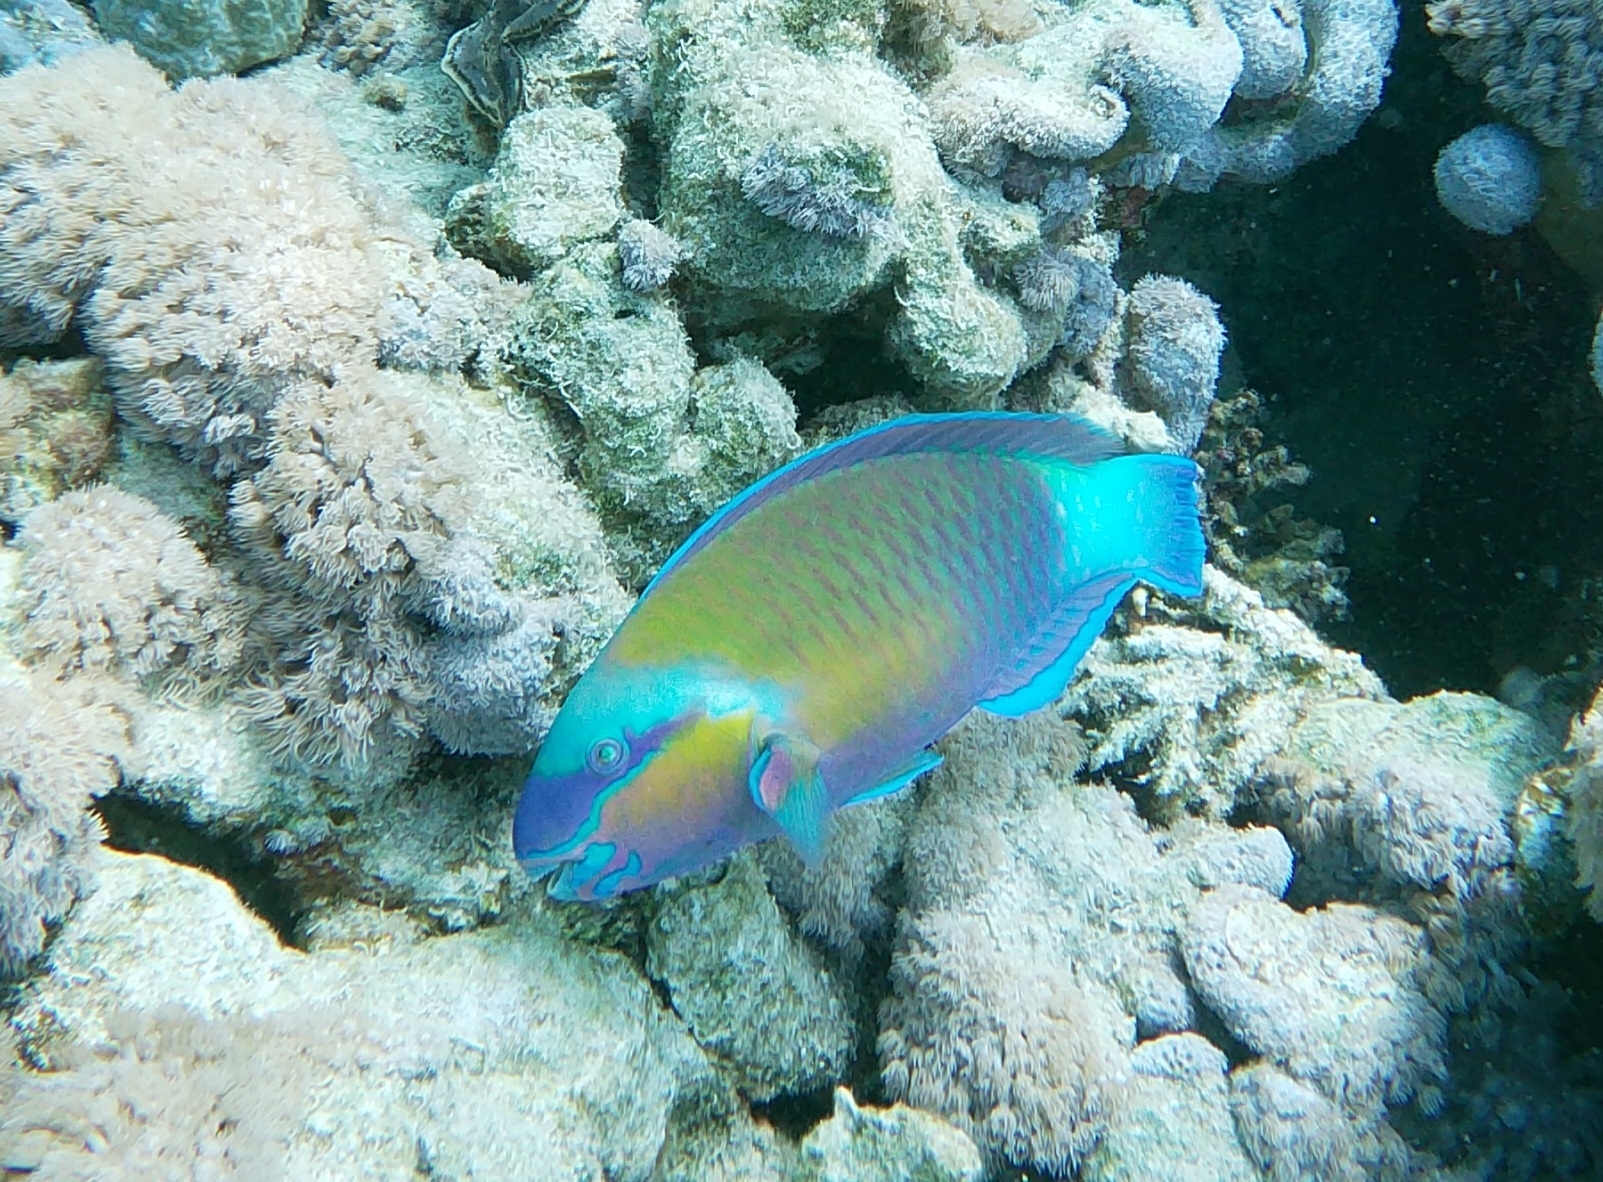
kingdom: Animalia
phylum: Chordata
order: Perciformes
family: Scaridae
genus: Chlorurus
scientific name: Chlorurus sordidus
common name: Bullethead parrotfish
